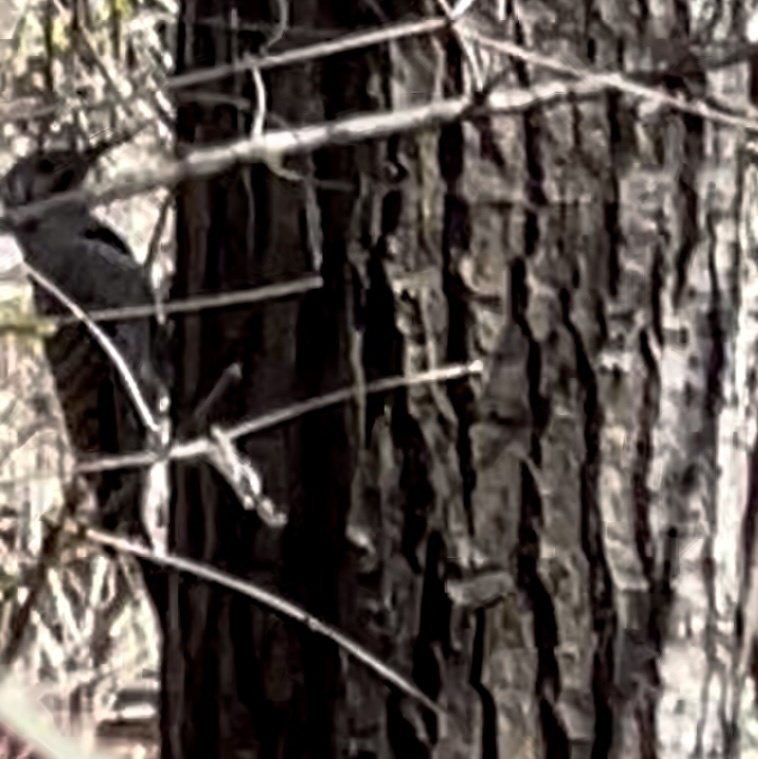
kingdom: Animalia
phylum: Chordata
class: Aves
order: Piciformes
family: Picidae
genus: Colaptes
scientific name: Colaptes auratus
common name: Northern flicker
